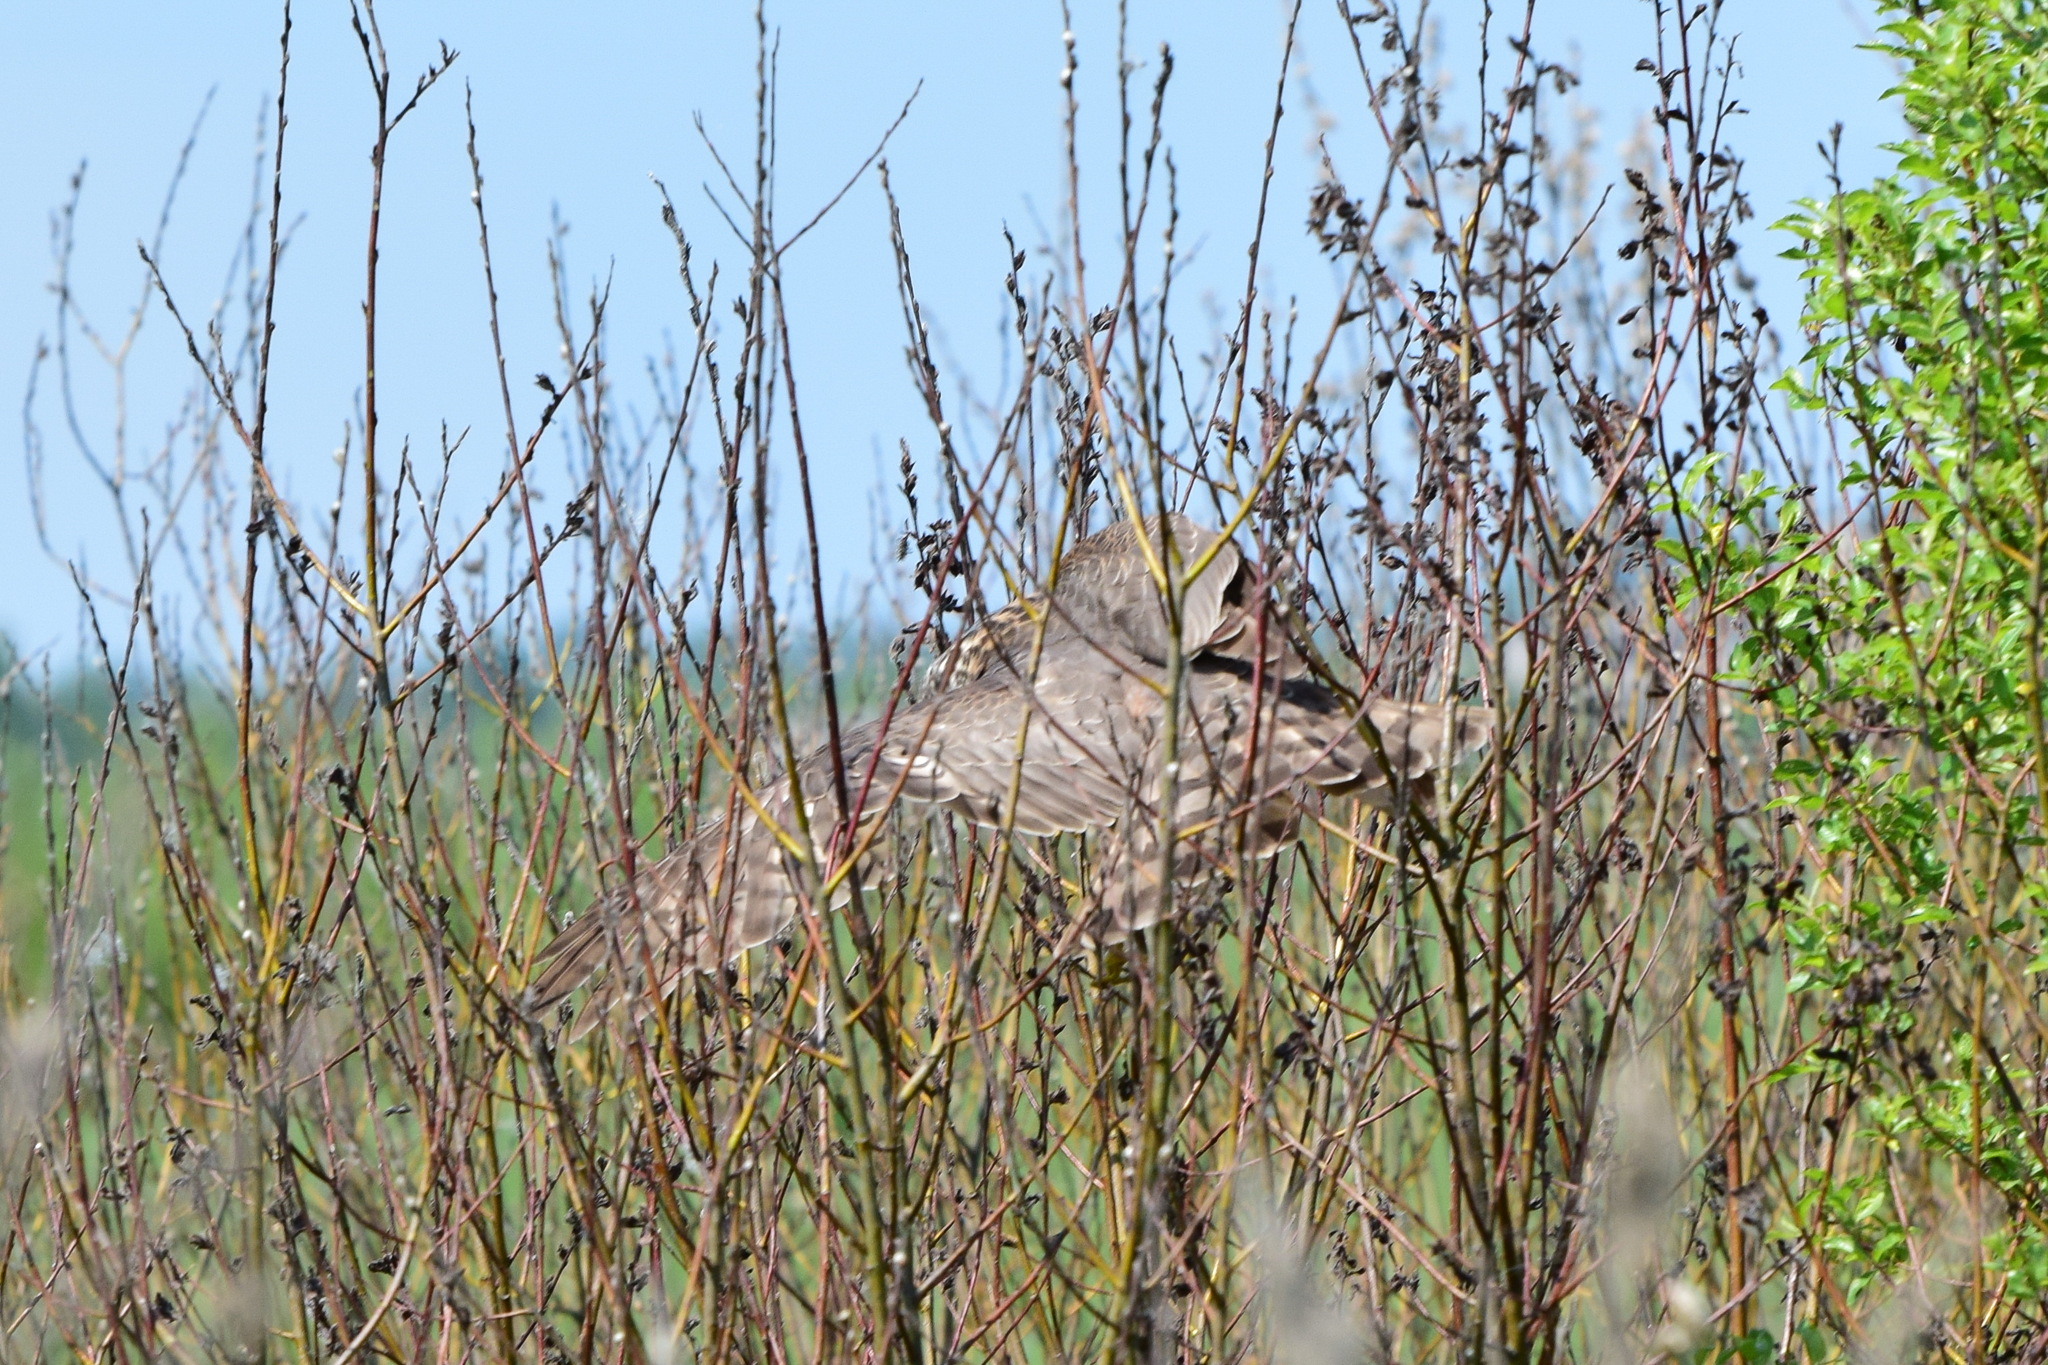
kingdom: Animalia
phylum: Chordata
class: Aves
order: Accipitriformes
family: Accipitridae
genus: Accipiter
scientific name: Accipiter nisus
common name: Eurasian sparrowhawk
